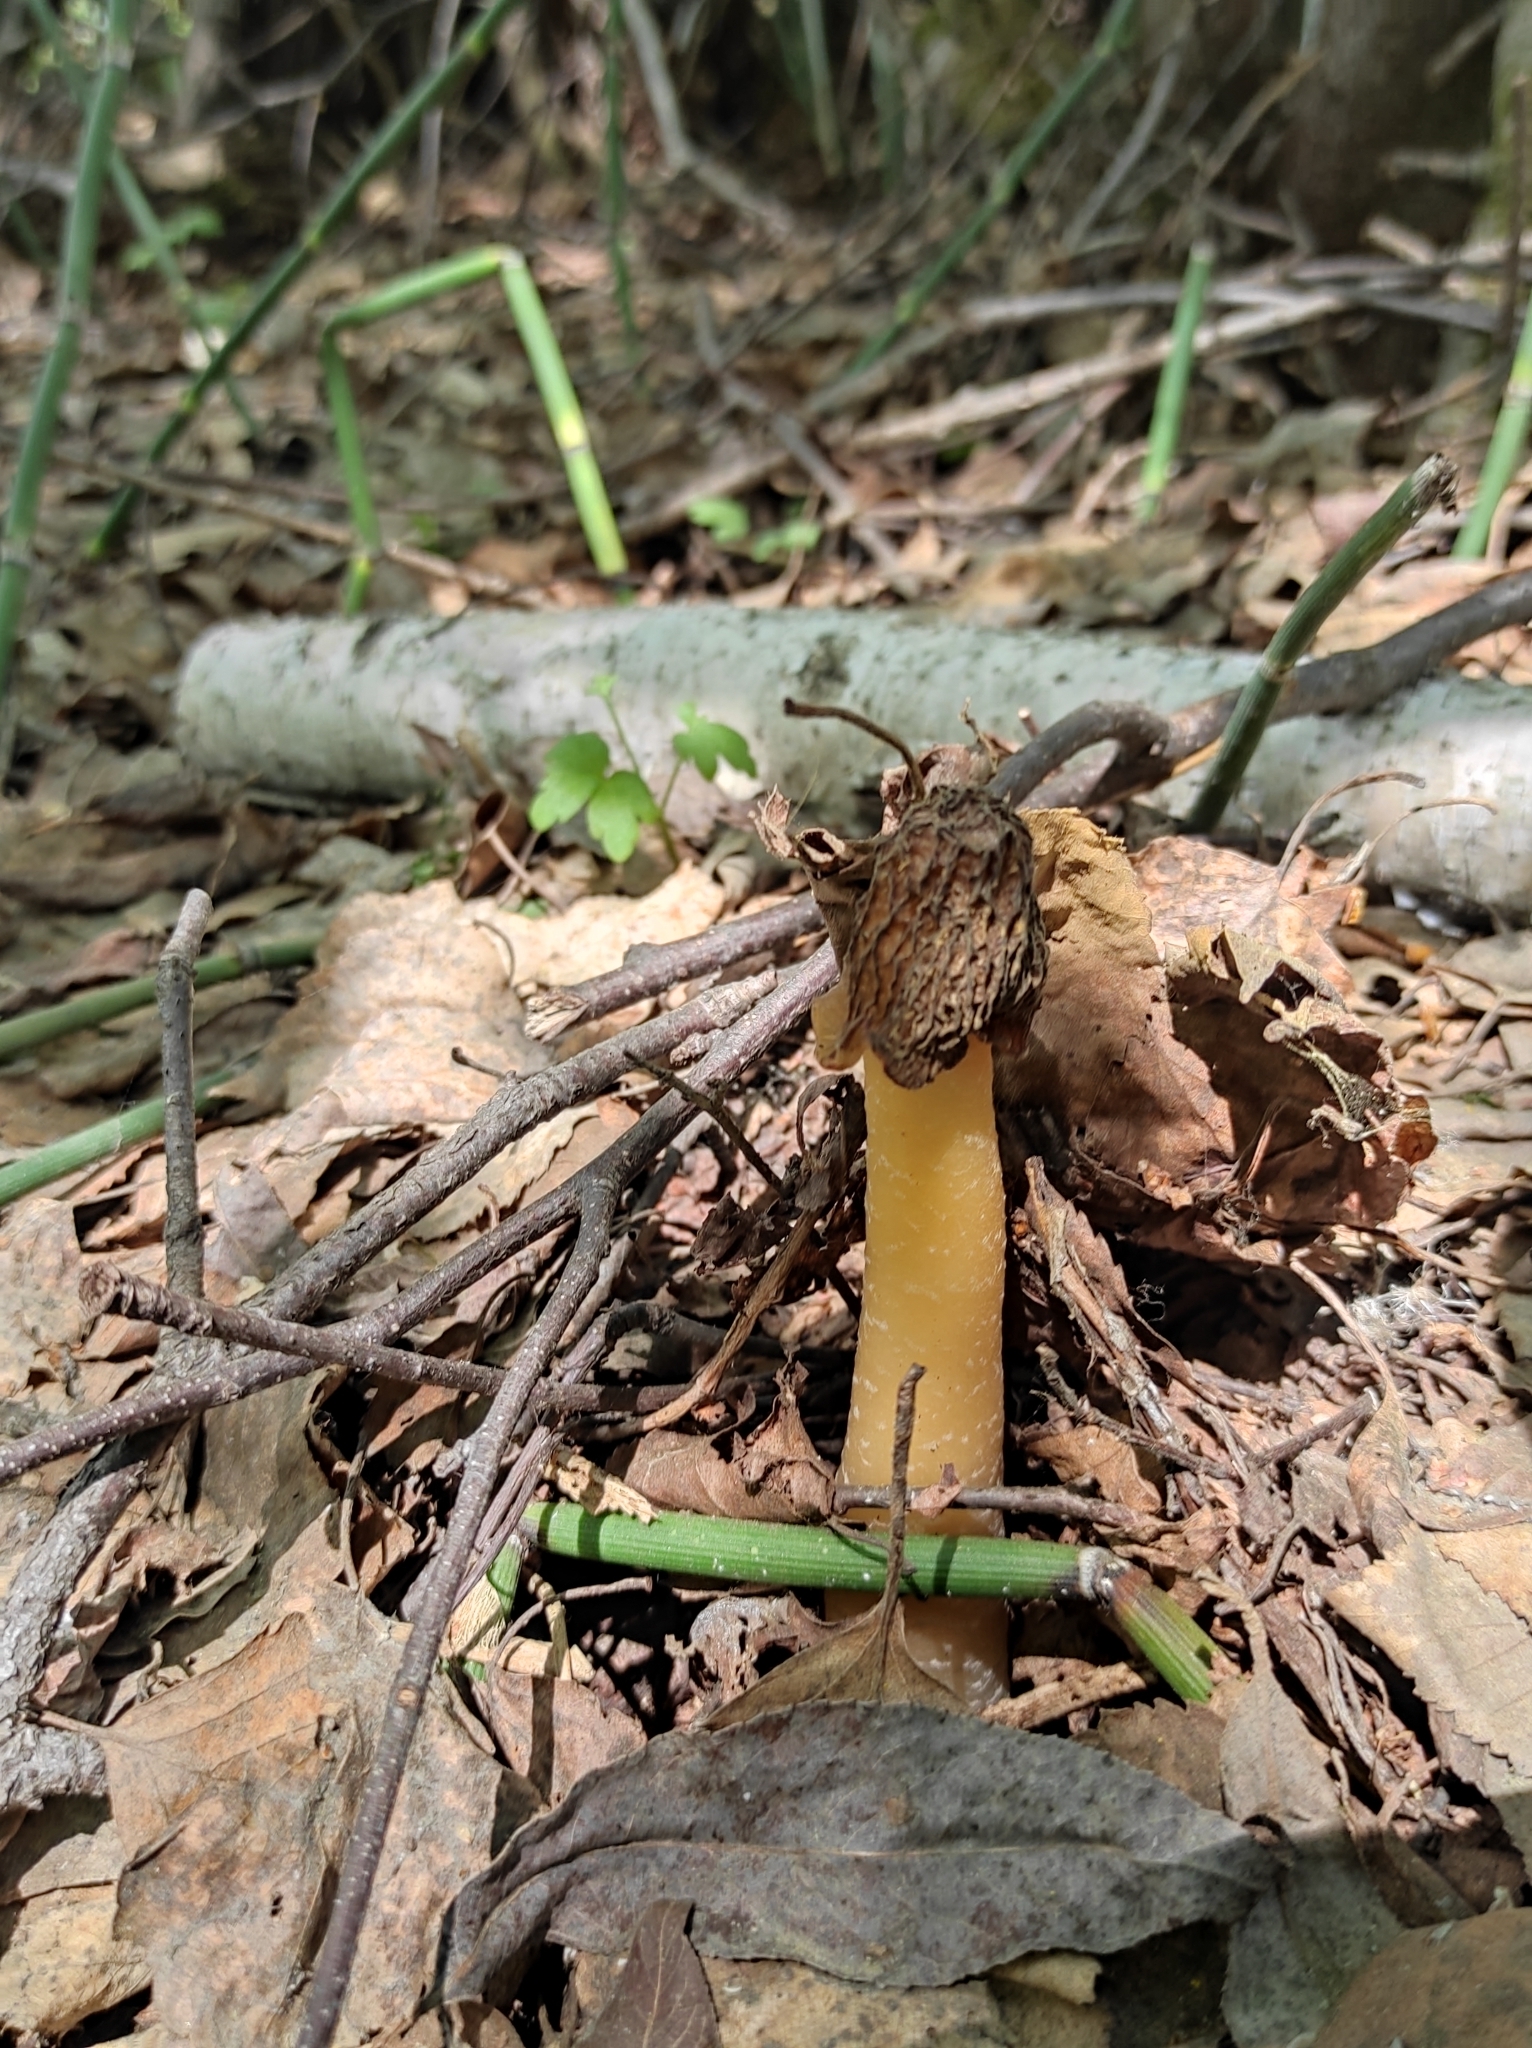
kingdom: Fungi
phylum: Ascomycota
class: Pezizomycetes
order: Pezizales
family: Morchellaceae
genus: Verpa
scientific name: Verpa bohemica
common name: Wrinkled thimble morel
